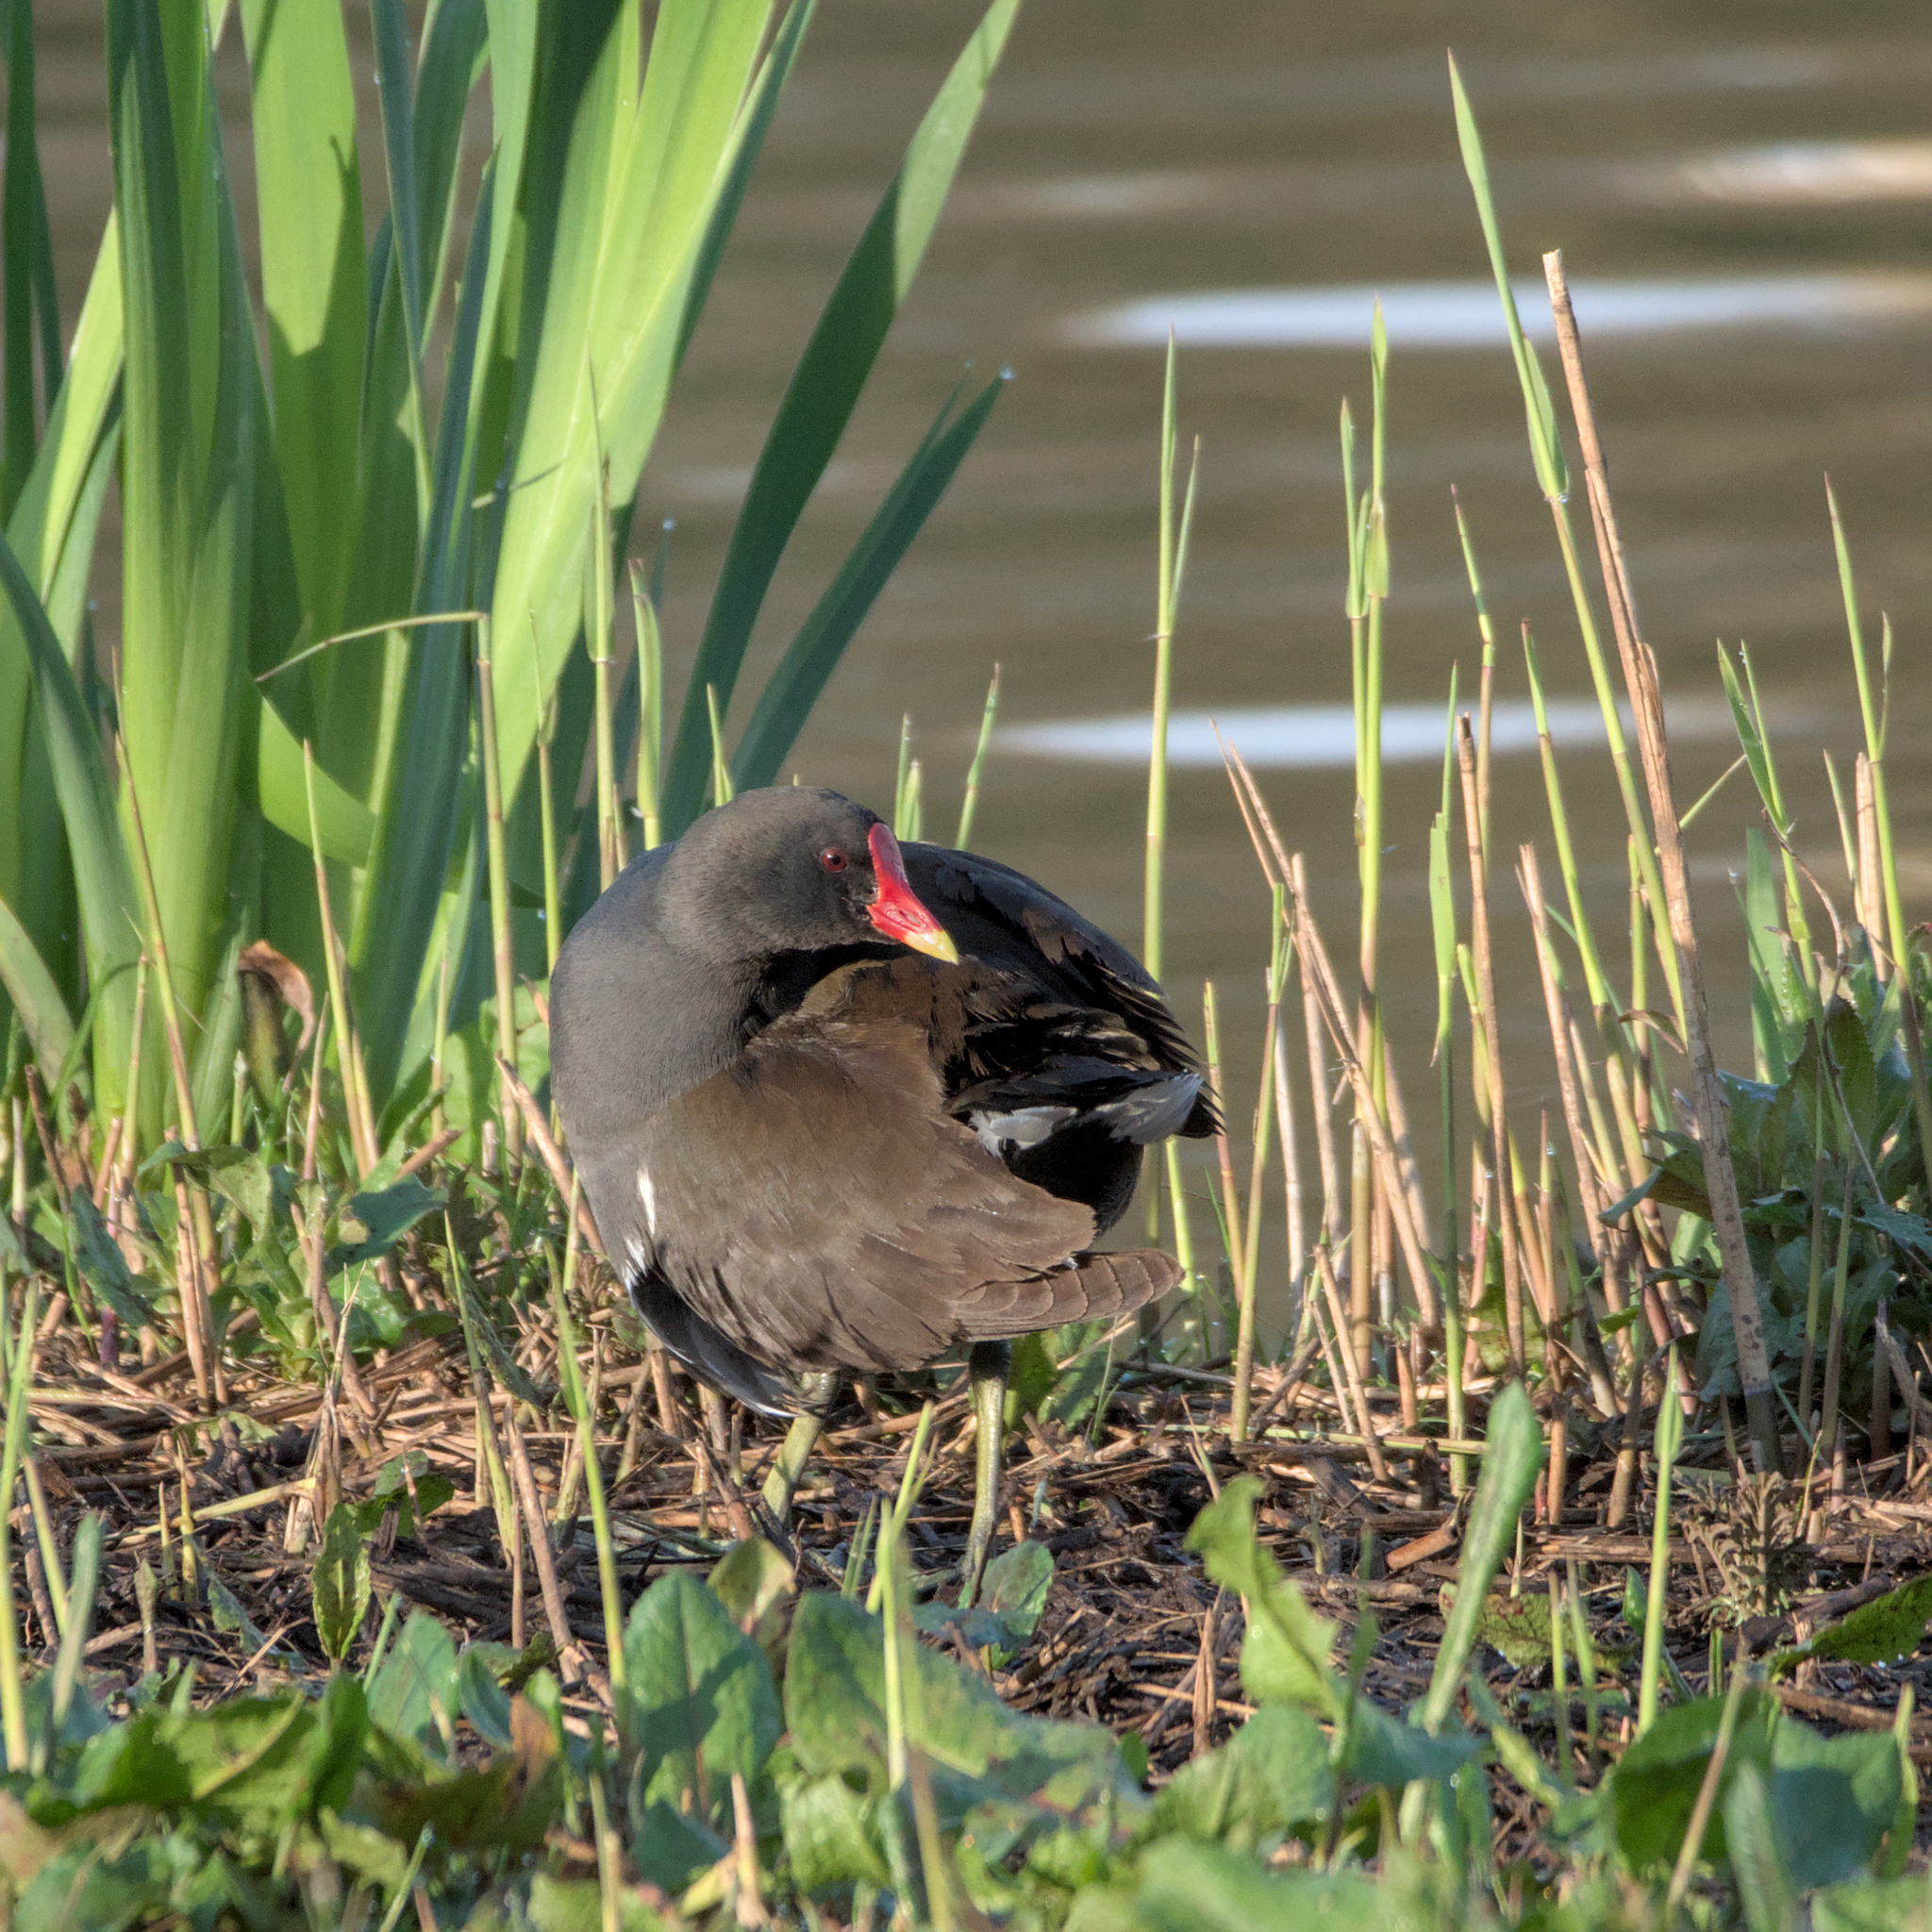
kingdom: Animalia
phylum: Chordata
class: Aves
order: Gruiformes
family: Rallidae
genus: Gallinula
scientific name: Gallinula chloropus
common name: Common moorhen
